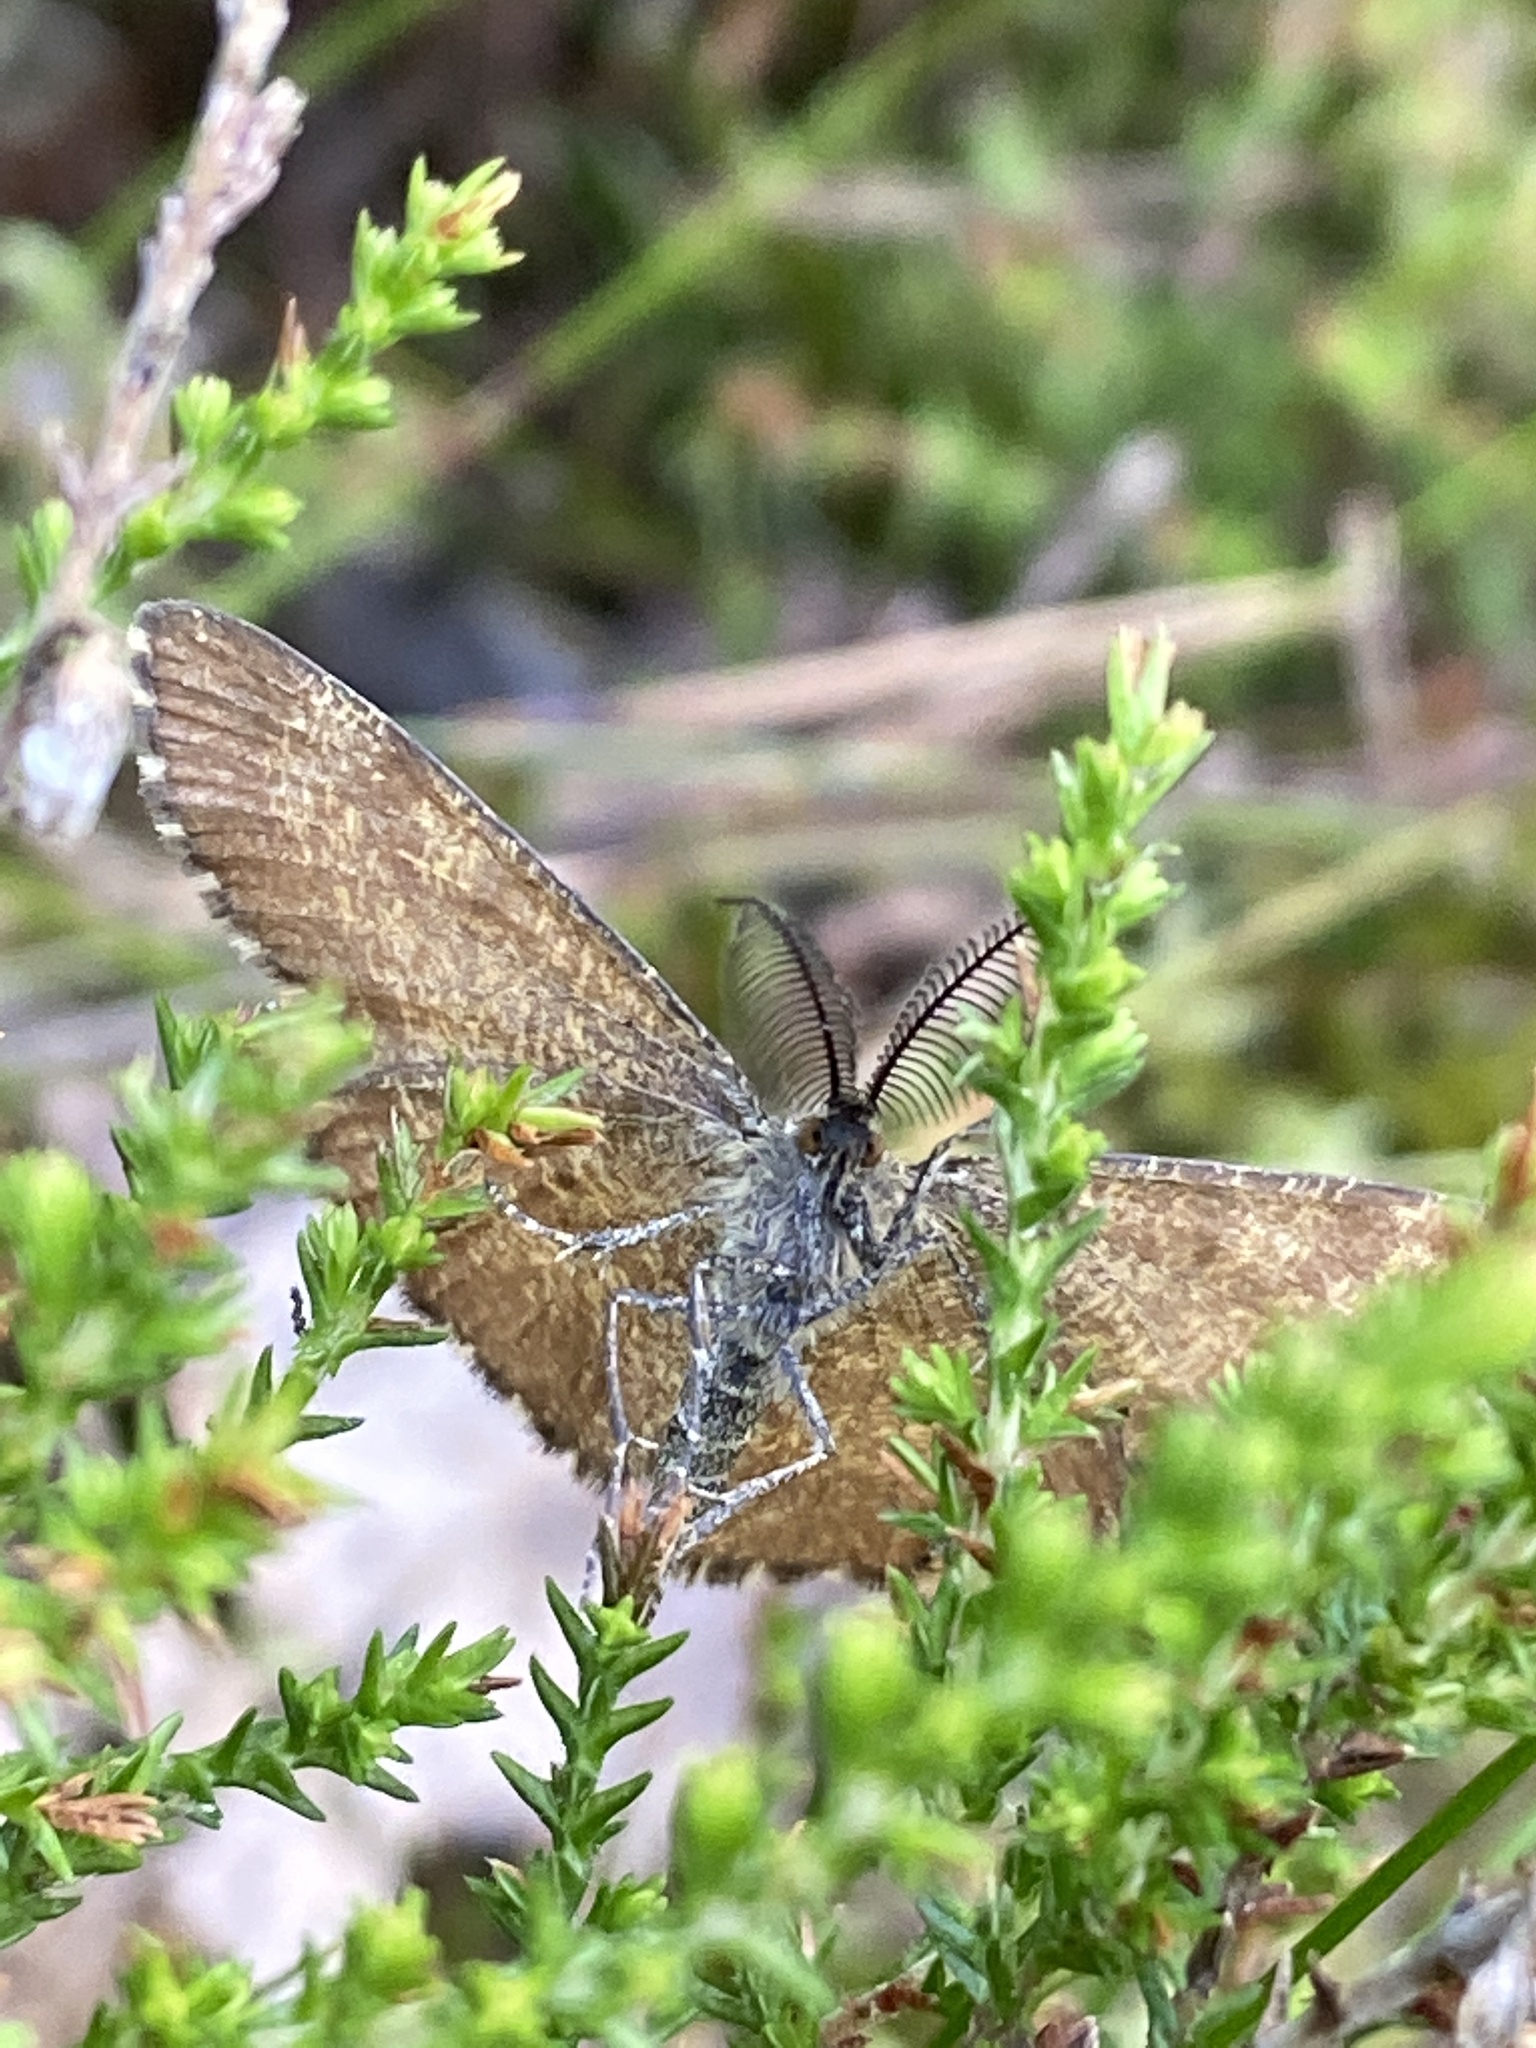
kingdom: Animalia
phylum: Arthropoda
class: Insecta
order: Lepidoptera
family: Geometridae
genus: Ematurga
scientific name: Ematurga atomaria
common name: Common heath
